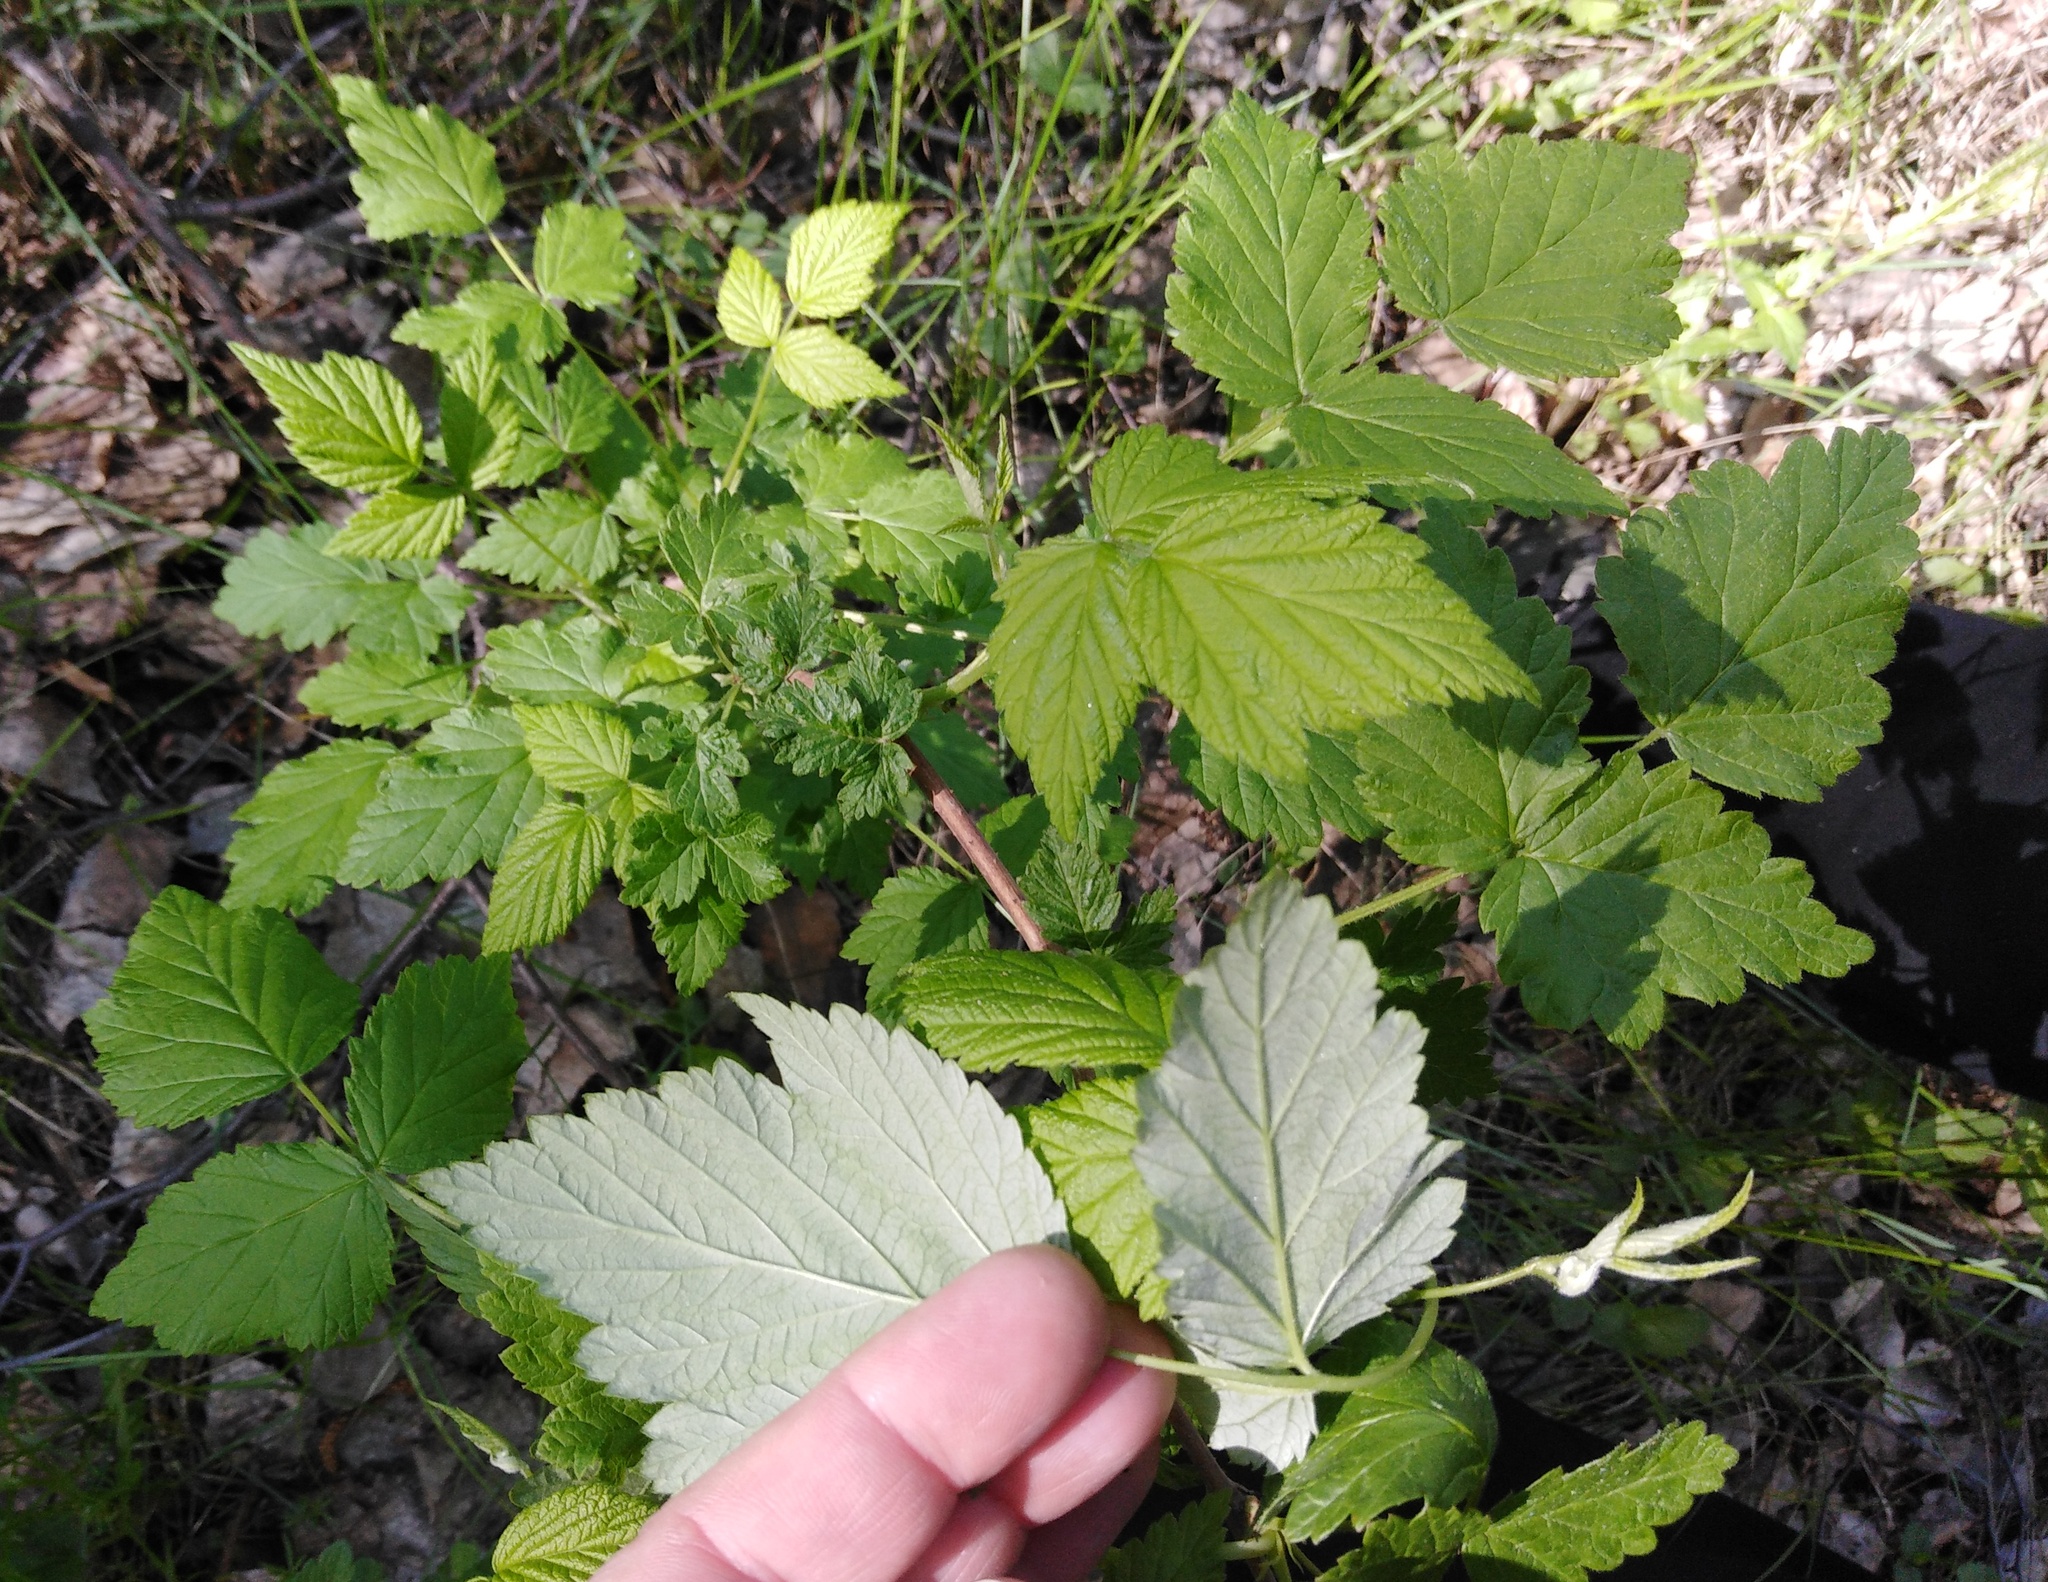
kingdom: Plantae
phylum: Tracheophyta
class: Magnoliopsida
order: Rosales
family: Rosaceae
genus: Rubus
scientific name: Rubus idaeus
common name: Raspberry
